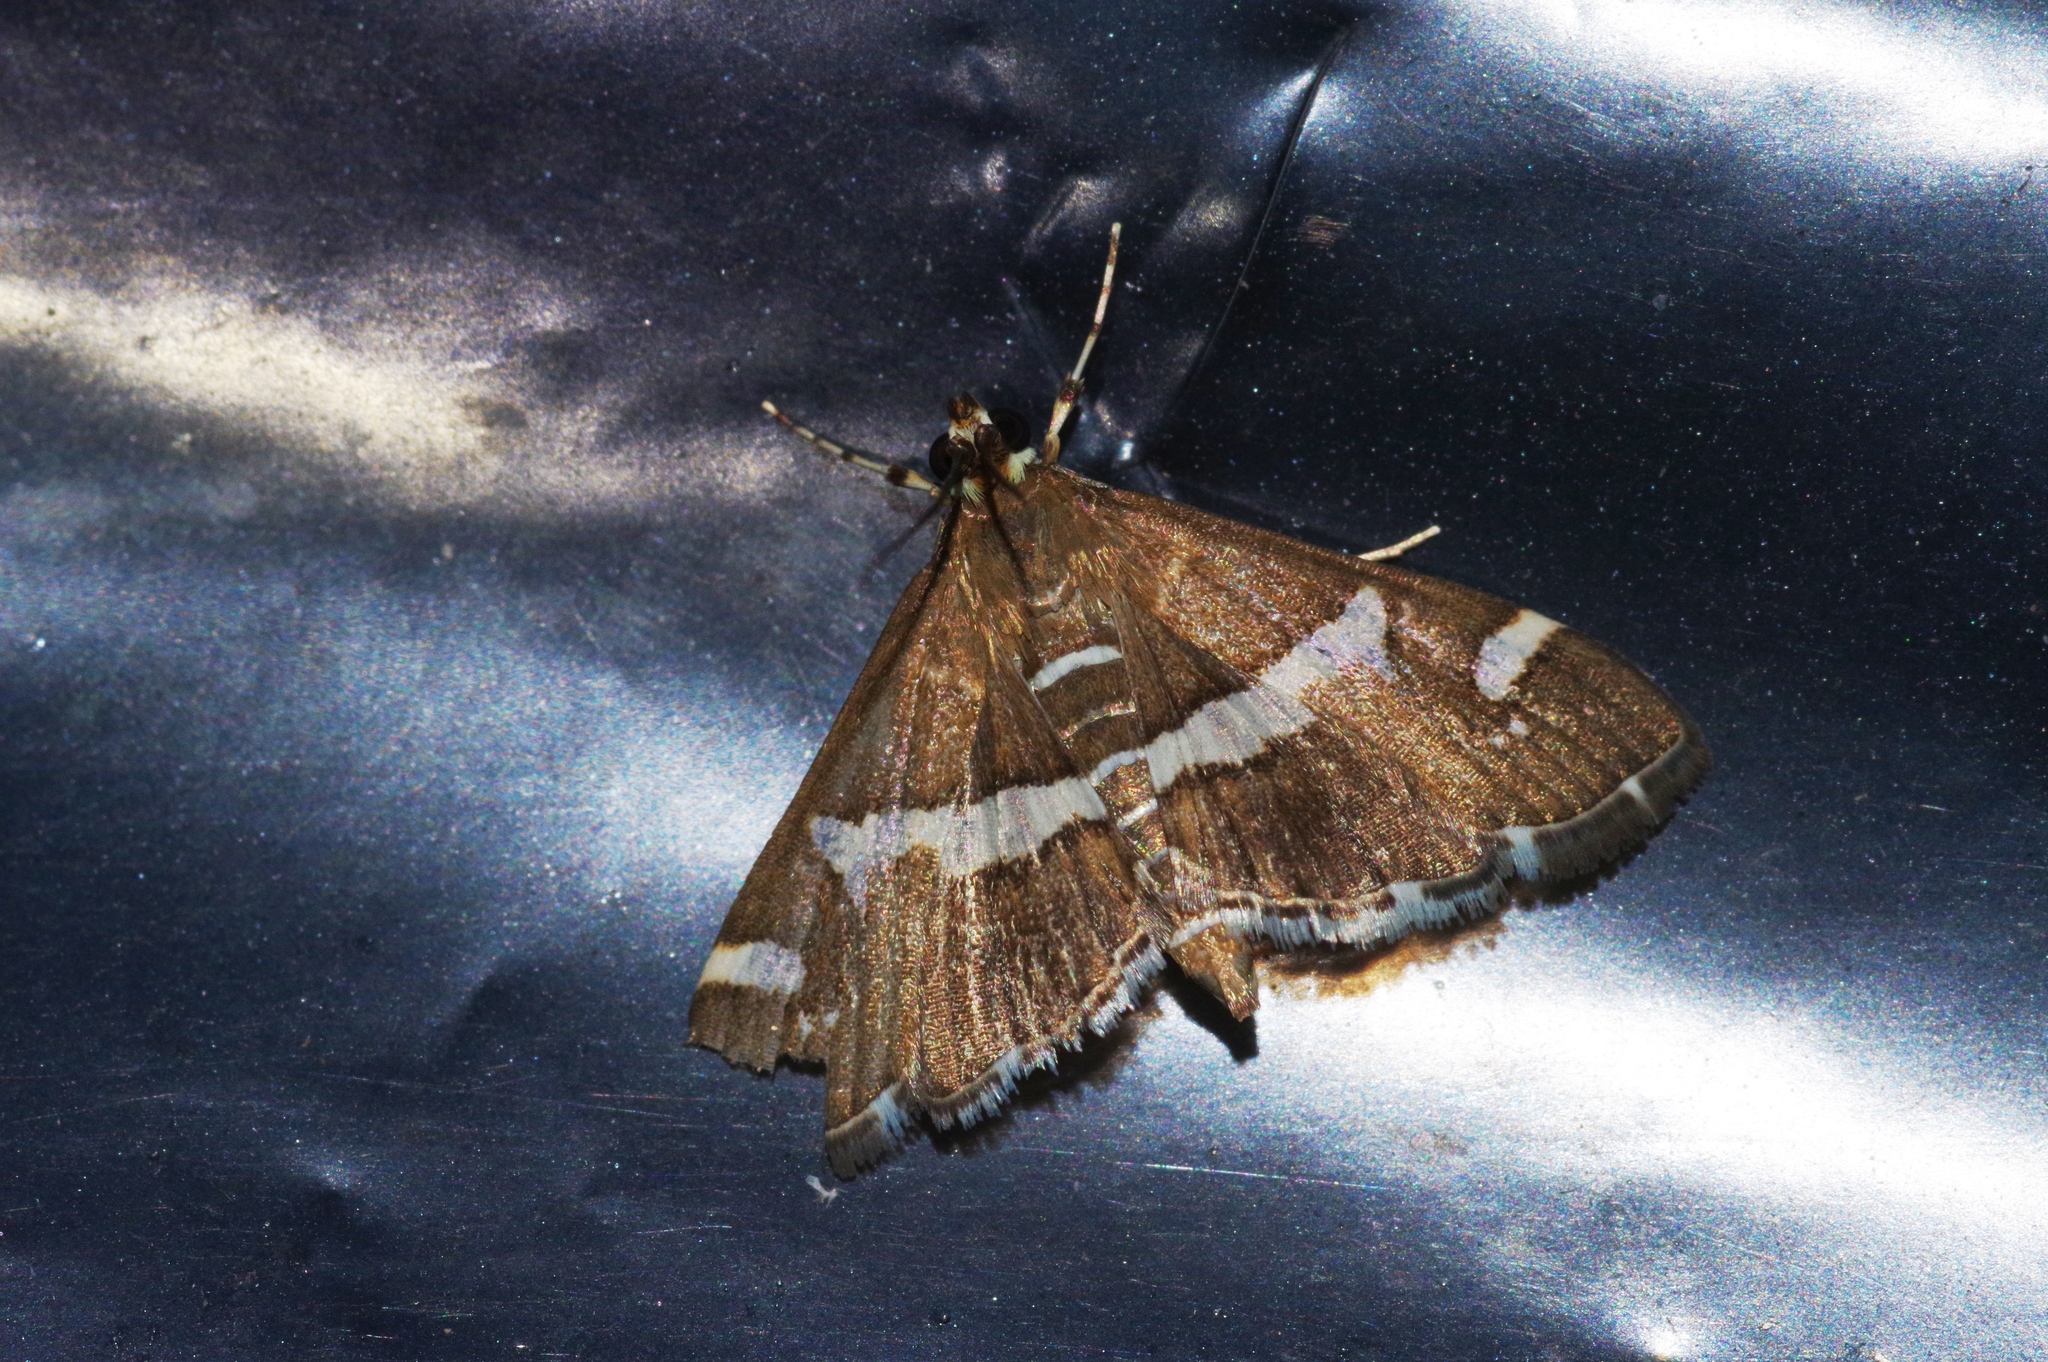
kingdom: Animalia
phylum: Arthropoda
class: Insecta
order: Lepidoptera
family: Crambidae
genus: Spoladea
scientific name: Spoladea recurvalis
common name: Beet webworm moth
